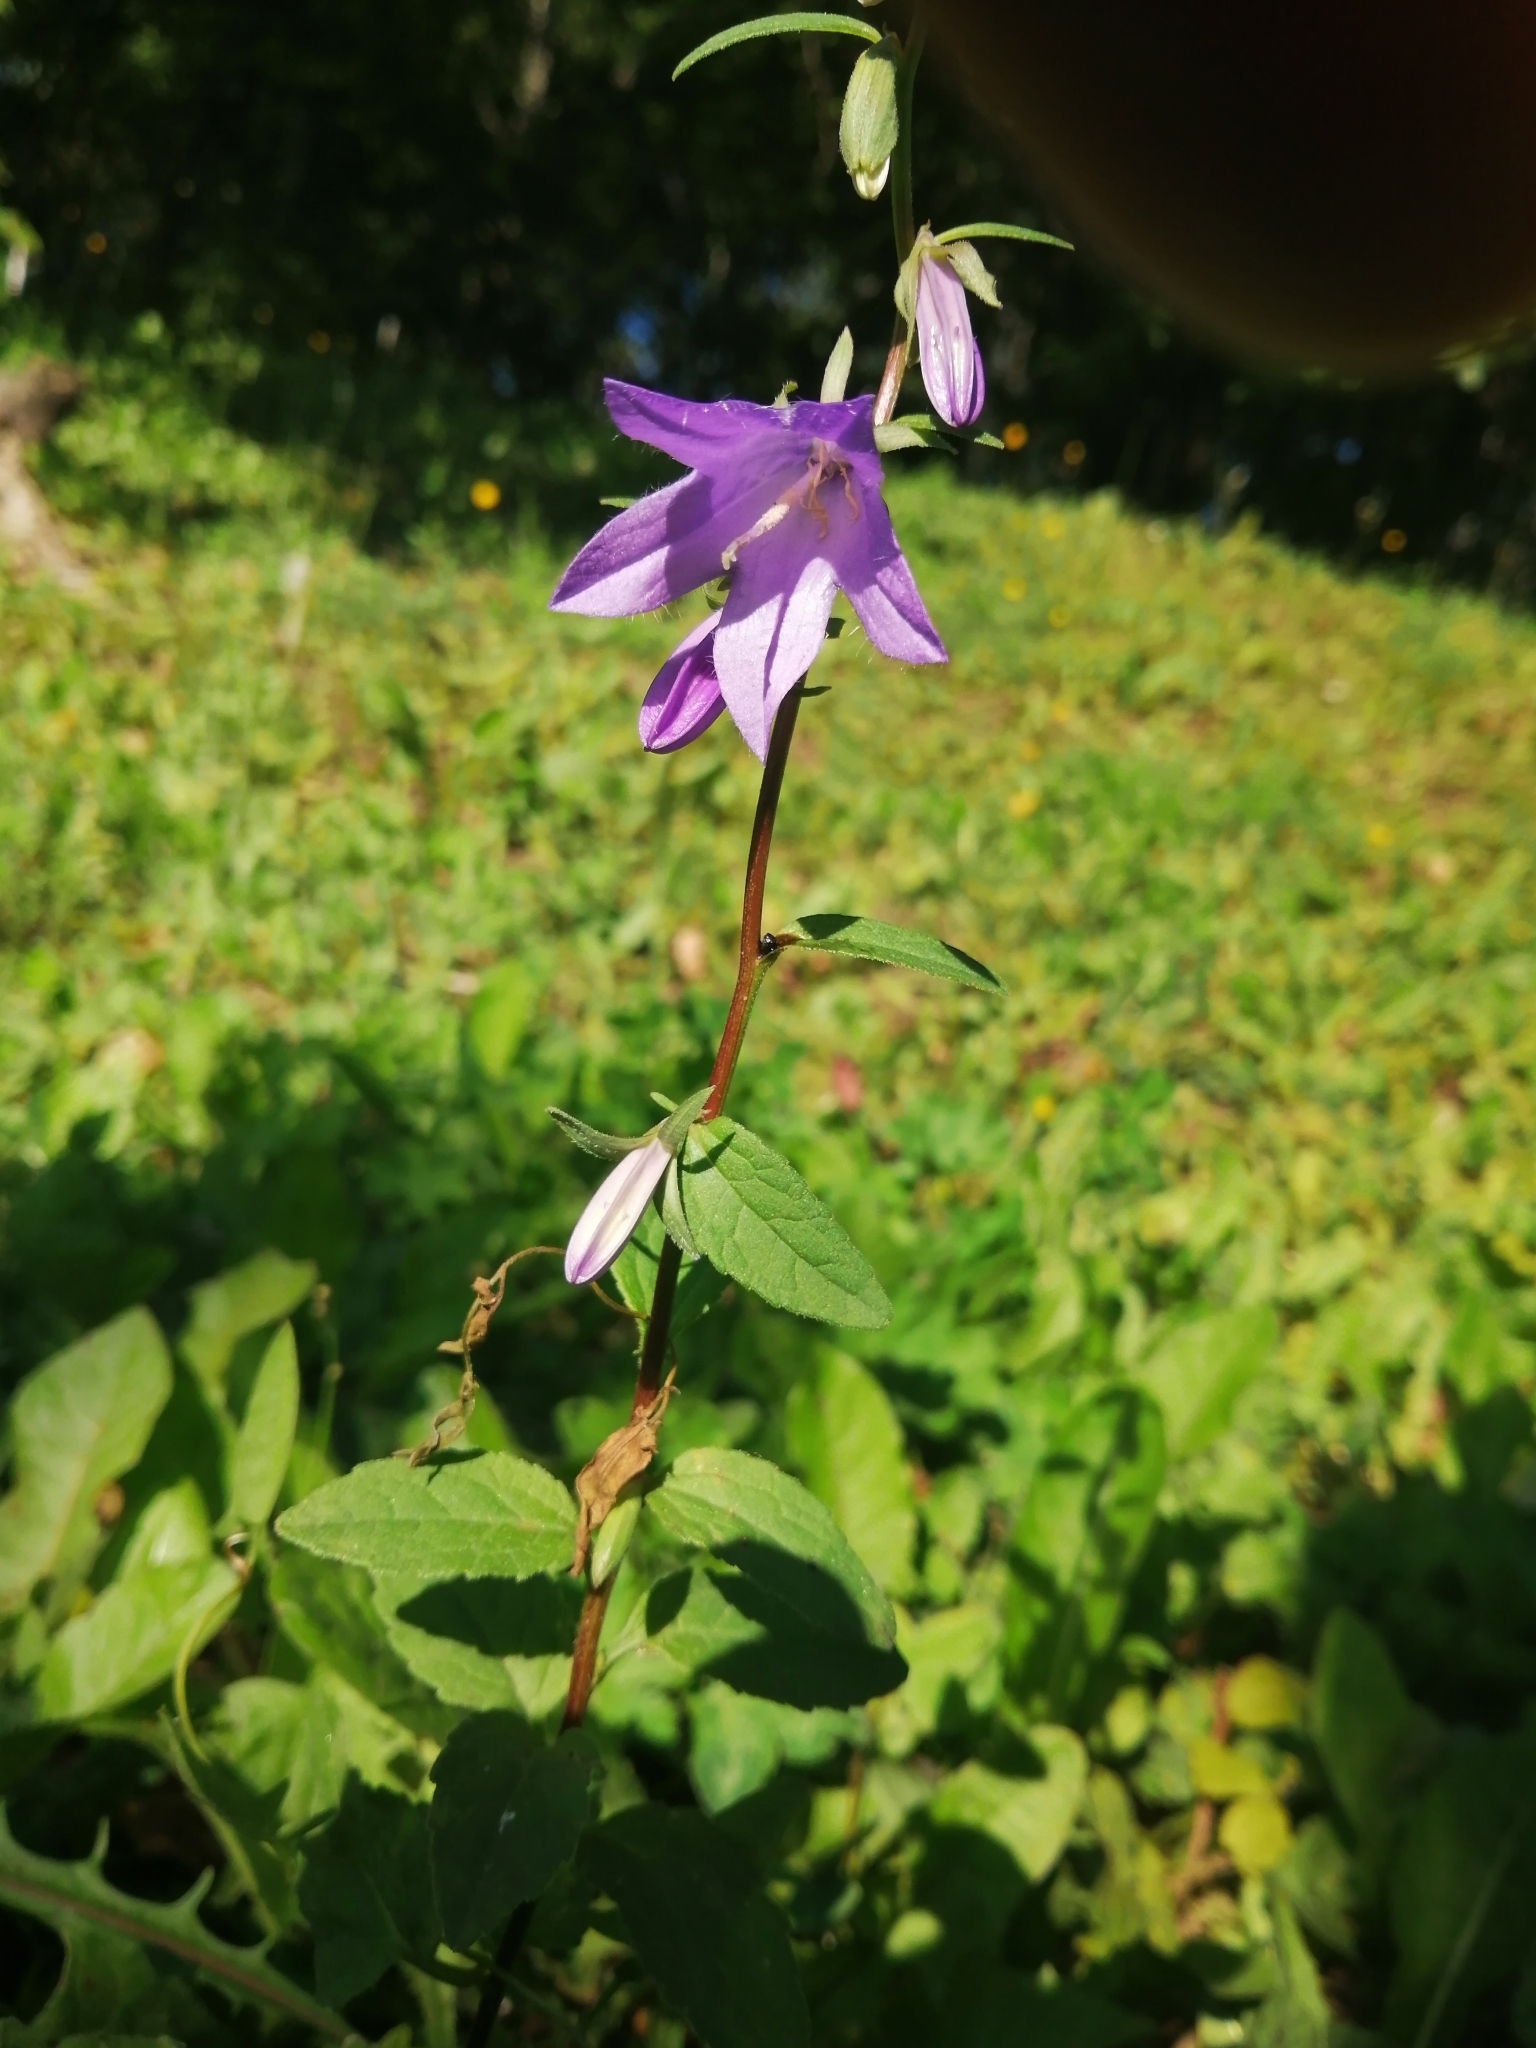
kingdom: Plantae
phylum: Tracheophyta
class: Magnoliopsida
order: Asterales
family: Campanulaceae
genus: Campanula
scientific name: Campanula rapunculoides
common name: Creeping bellflower
